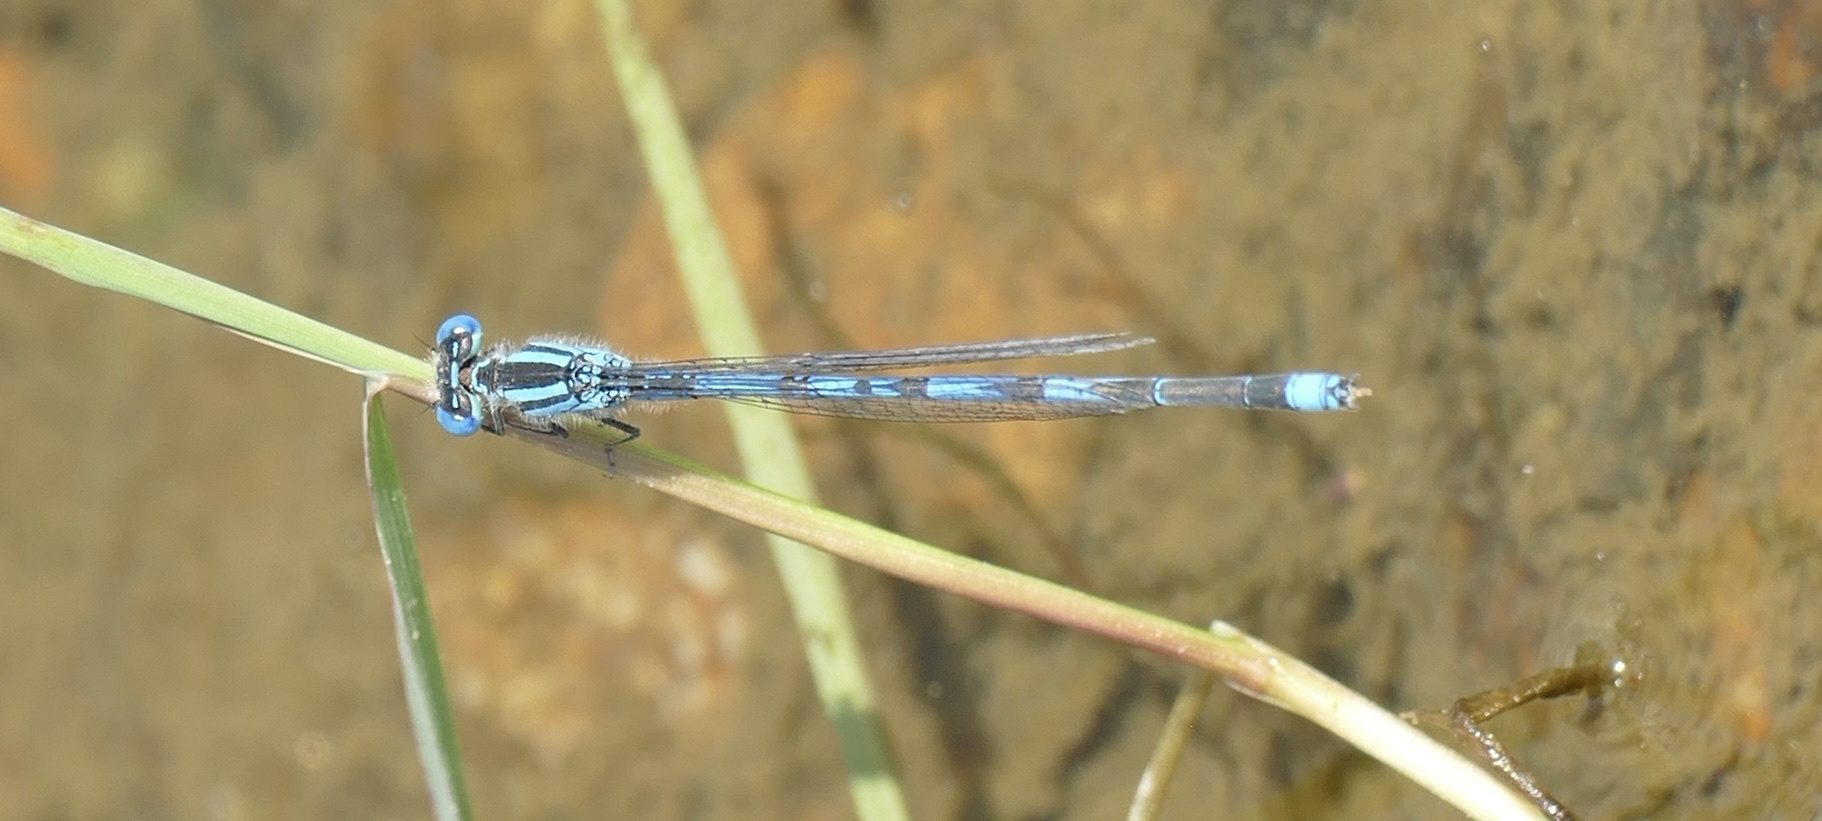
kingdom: Animalia
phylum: Arthropoda
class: Insecta
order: Odonata
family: Coenagrionidae
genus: Erythromma
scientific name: Erythromma lindenii
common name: Blue-eye
